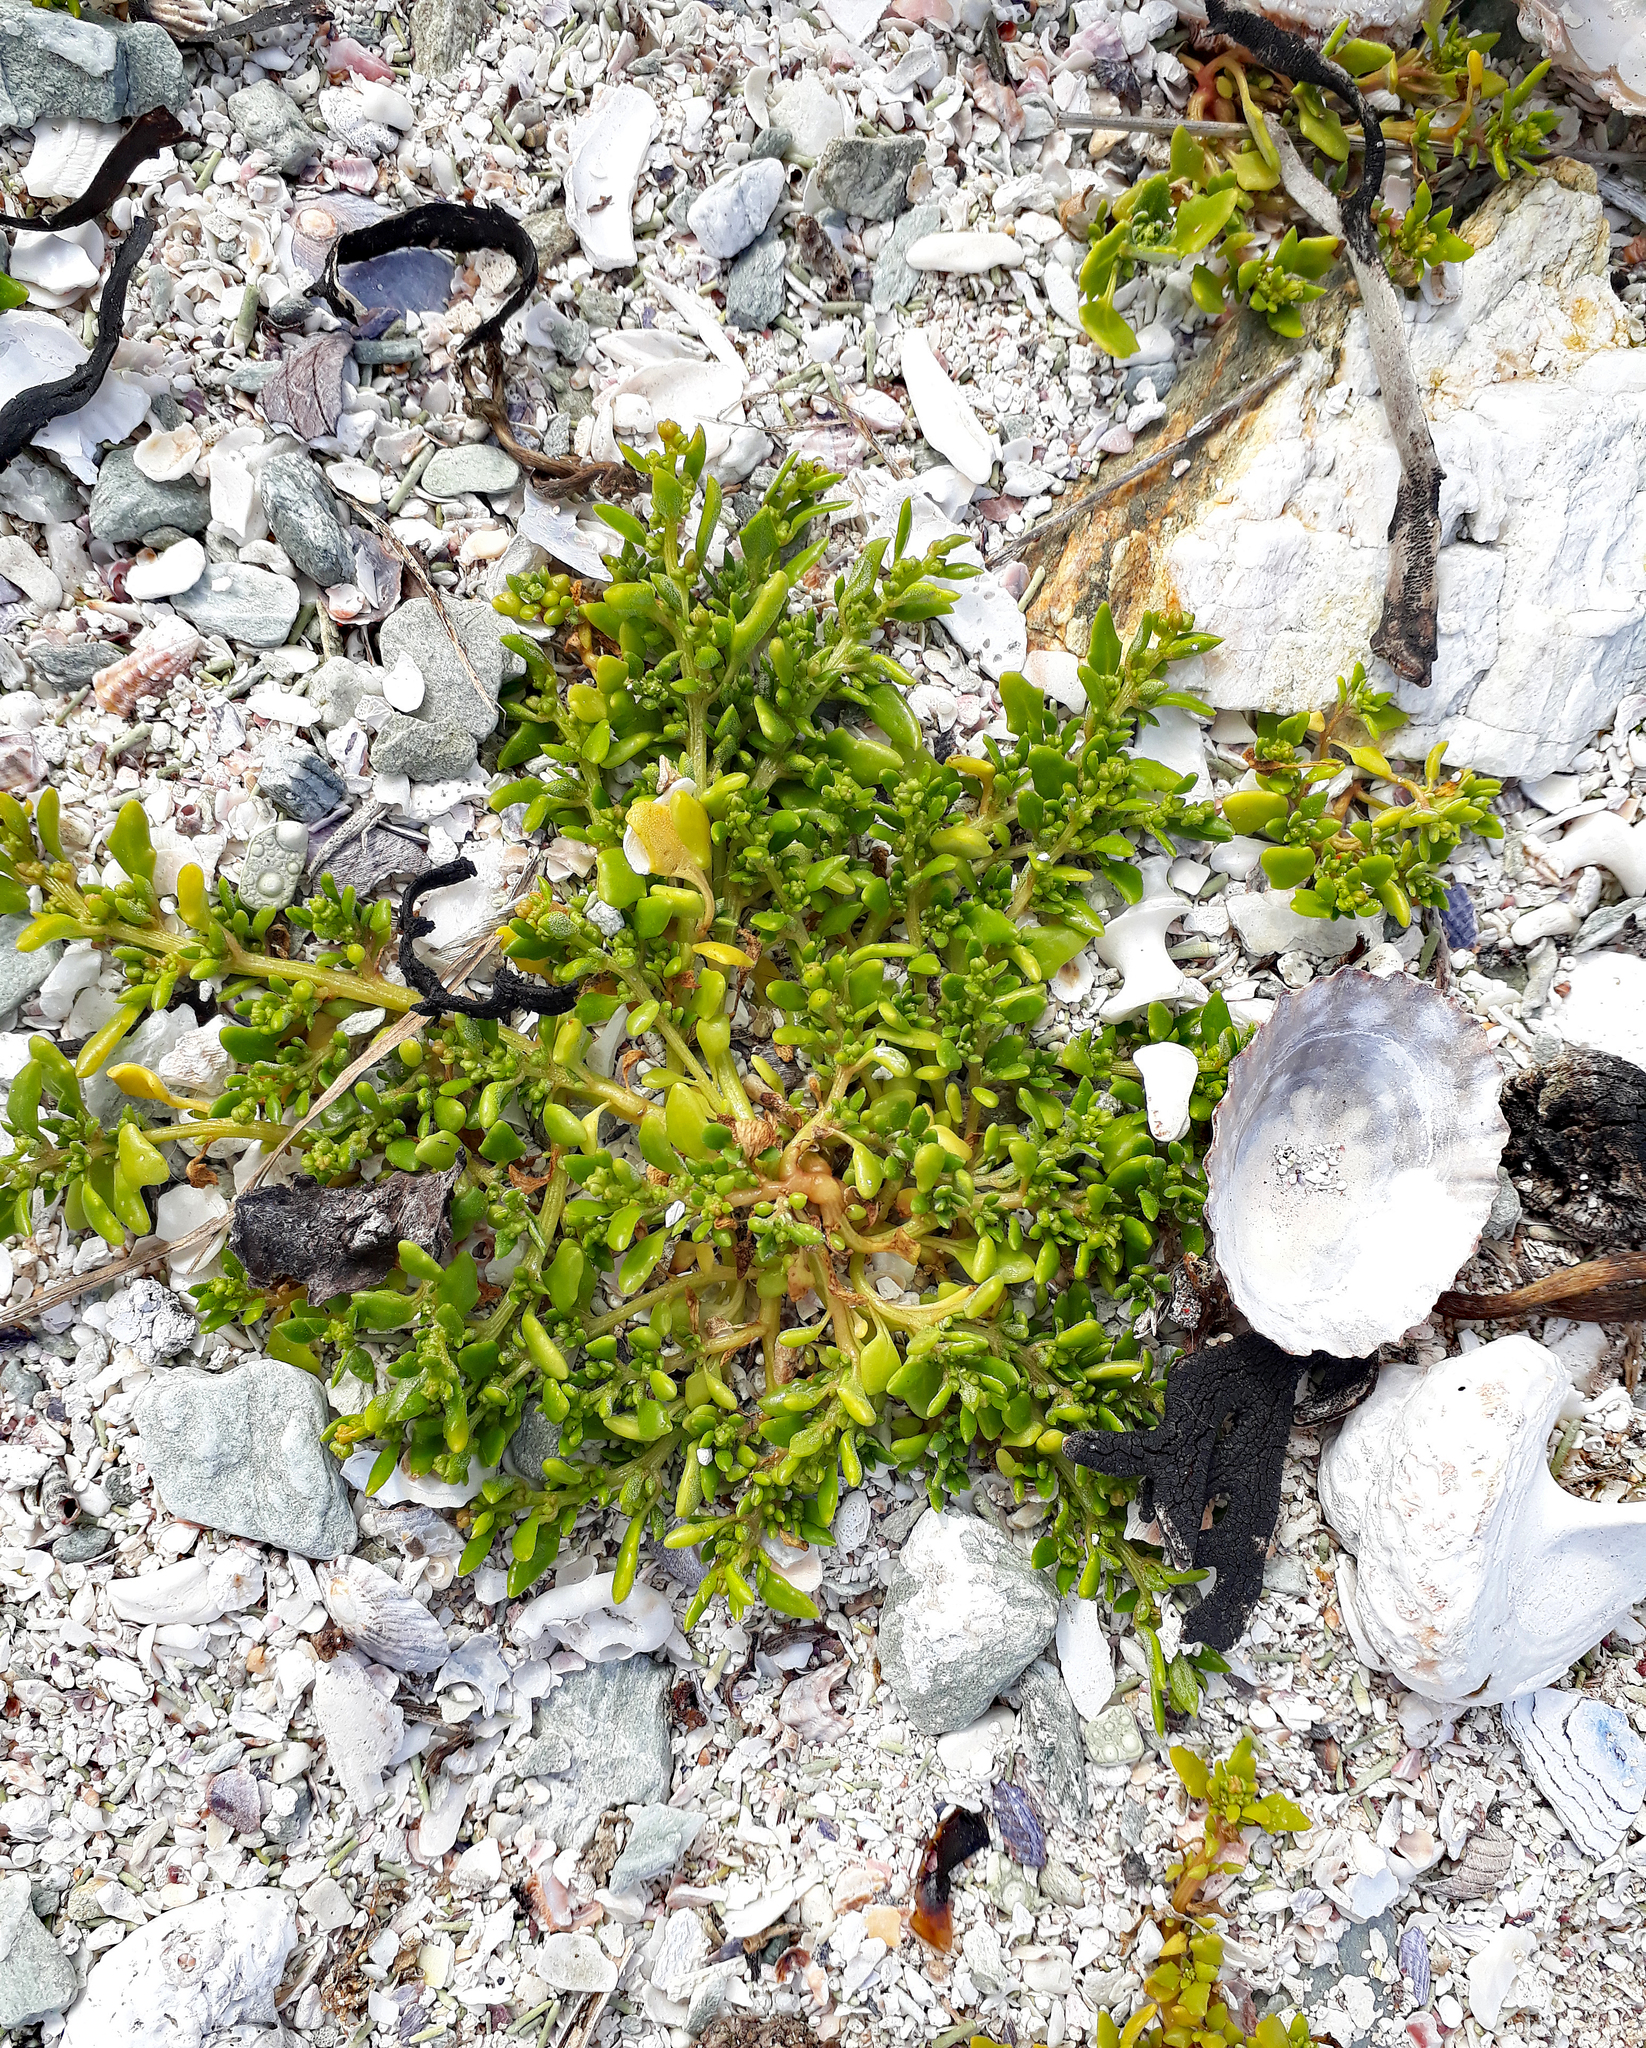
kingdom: Plantae
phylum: Tracheophyta
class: Magnoliopsida
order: Caryophyllales
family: Amaranthaceae
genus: Oxybasis
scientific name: Oxybasis ambigua
